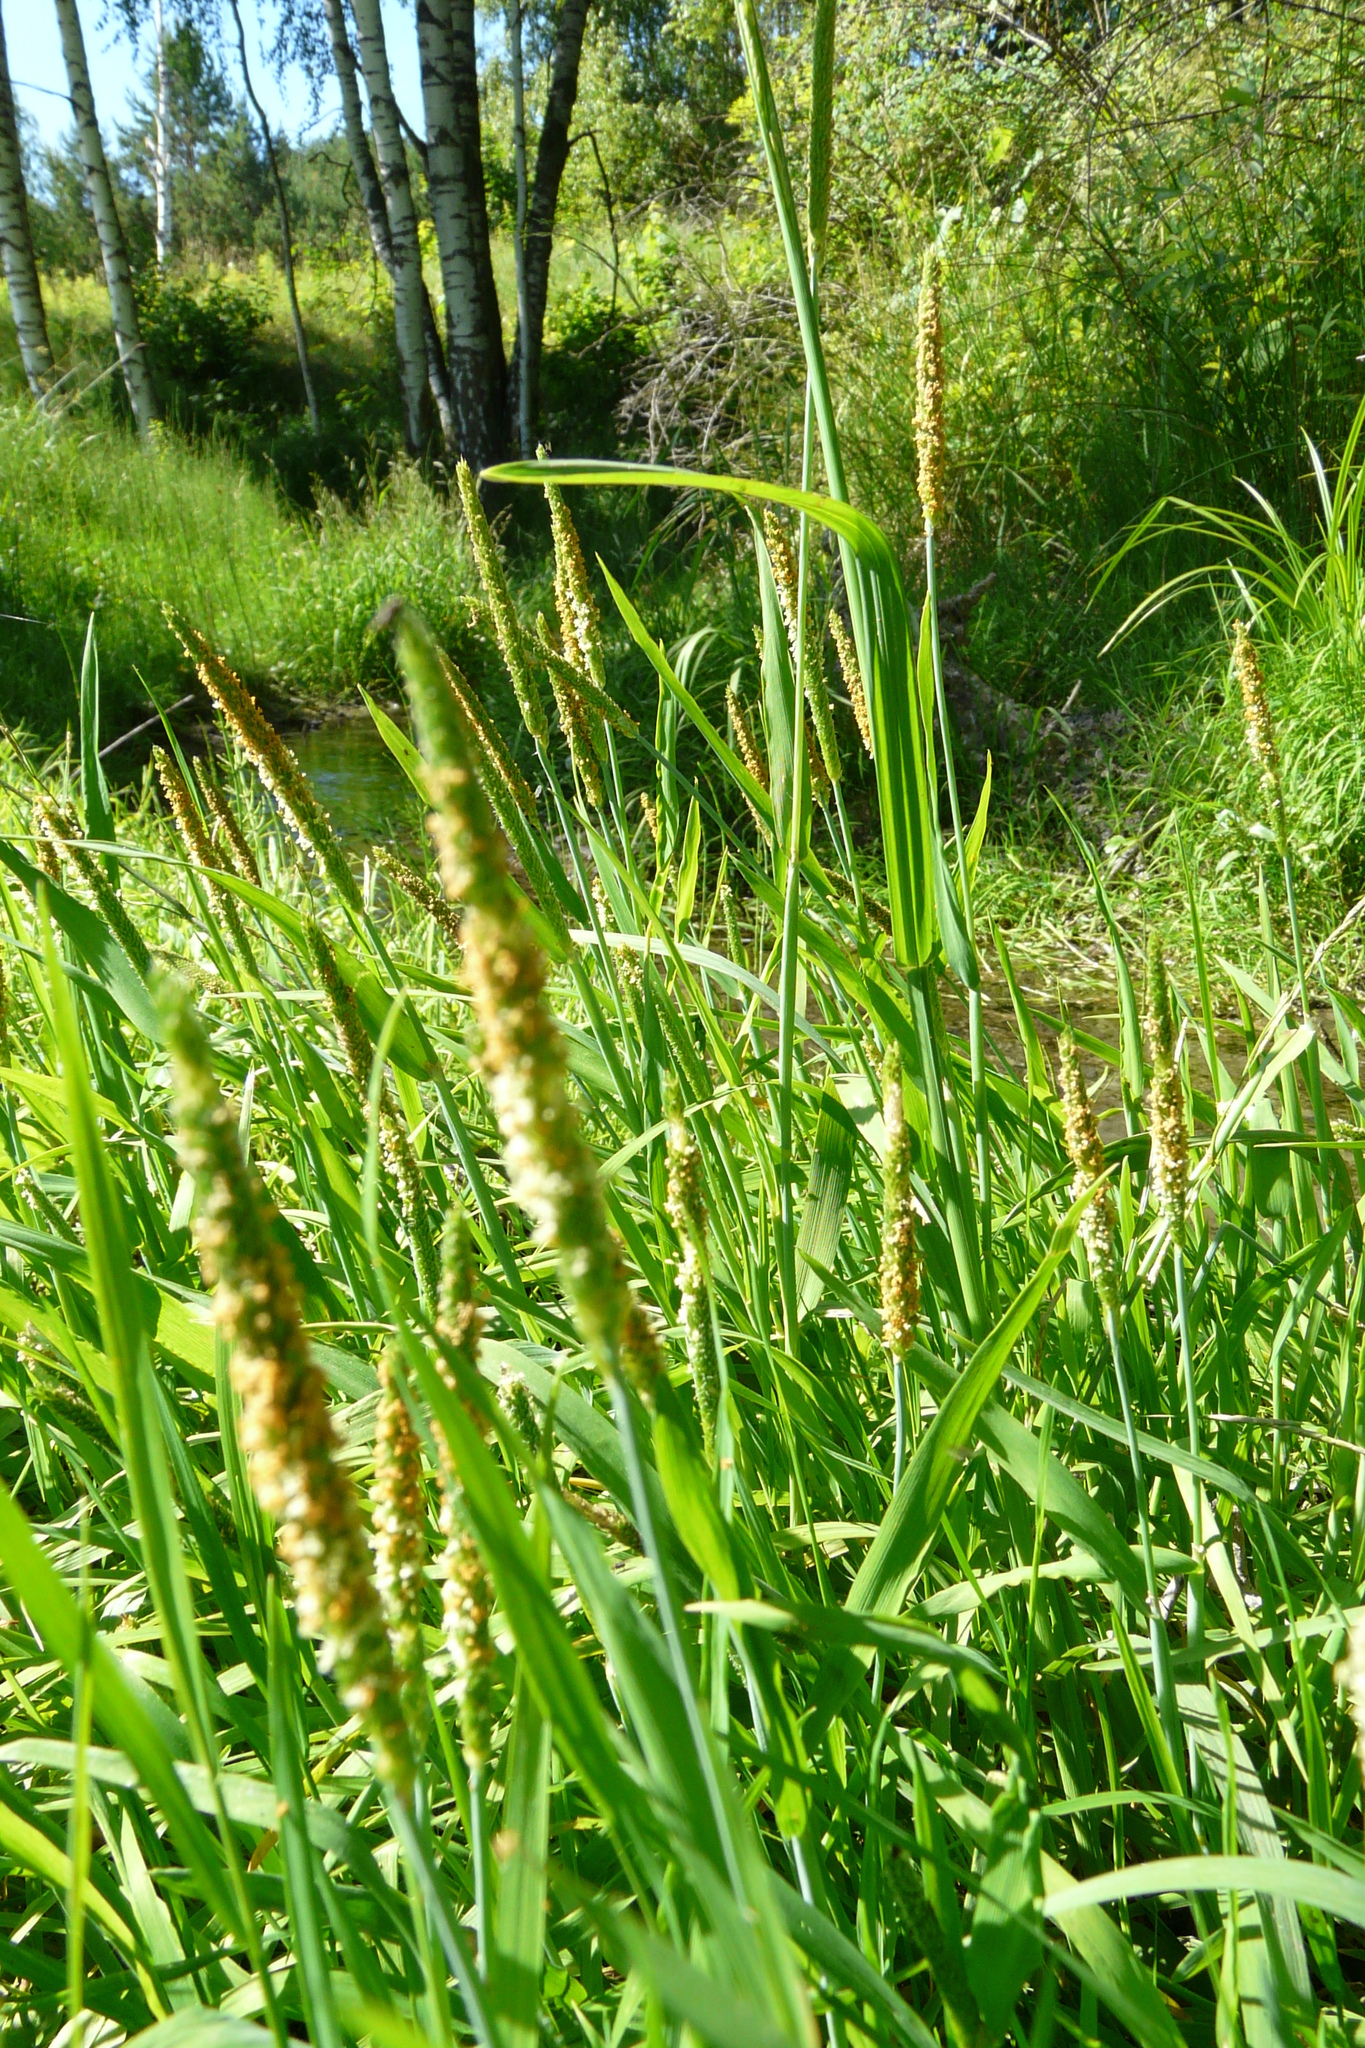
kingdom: Plantae
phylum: Tracheophyta
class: Liliopsida
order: Poales
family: Poaceae
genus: Alopecurus
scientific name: Alopecurus aequalis
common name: Orange foxtail
